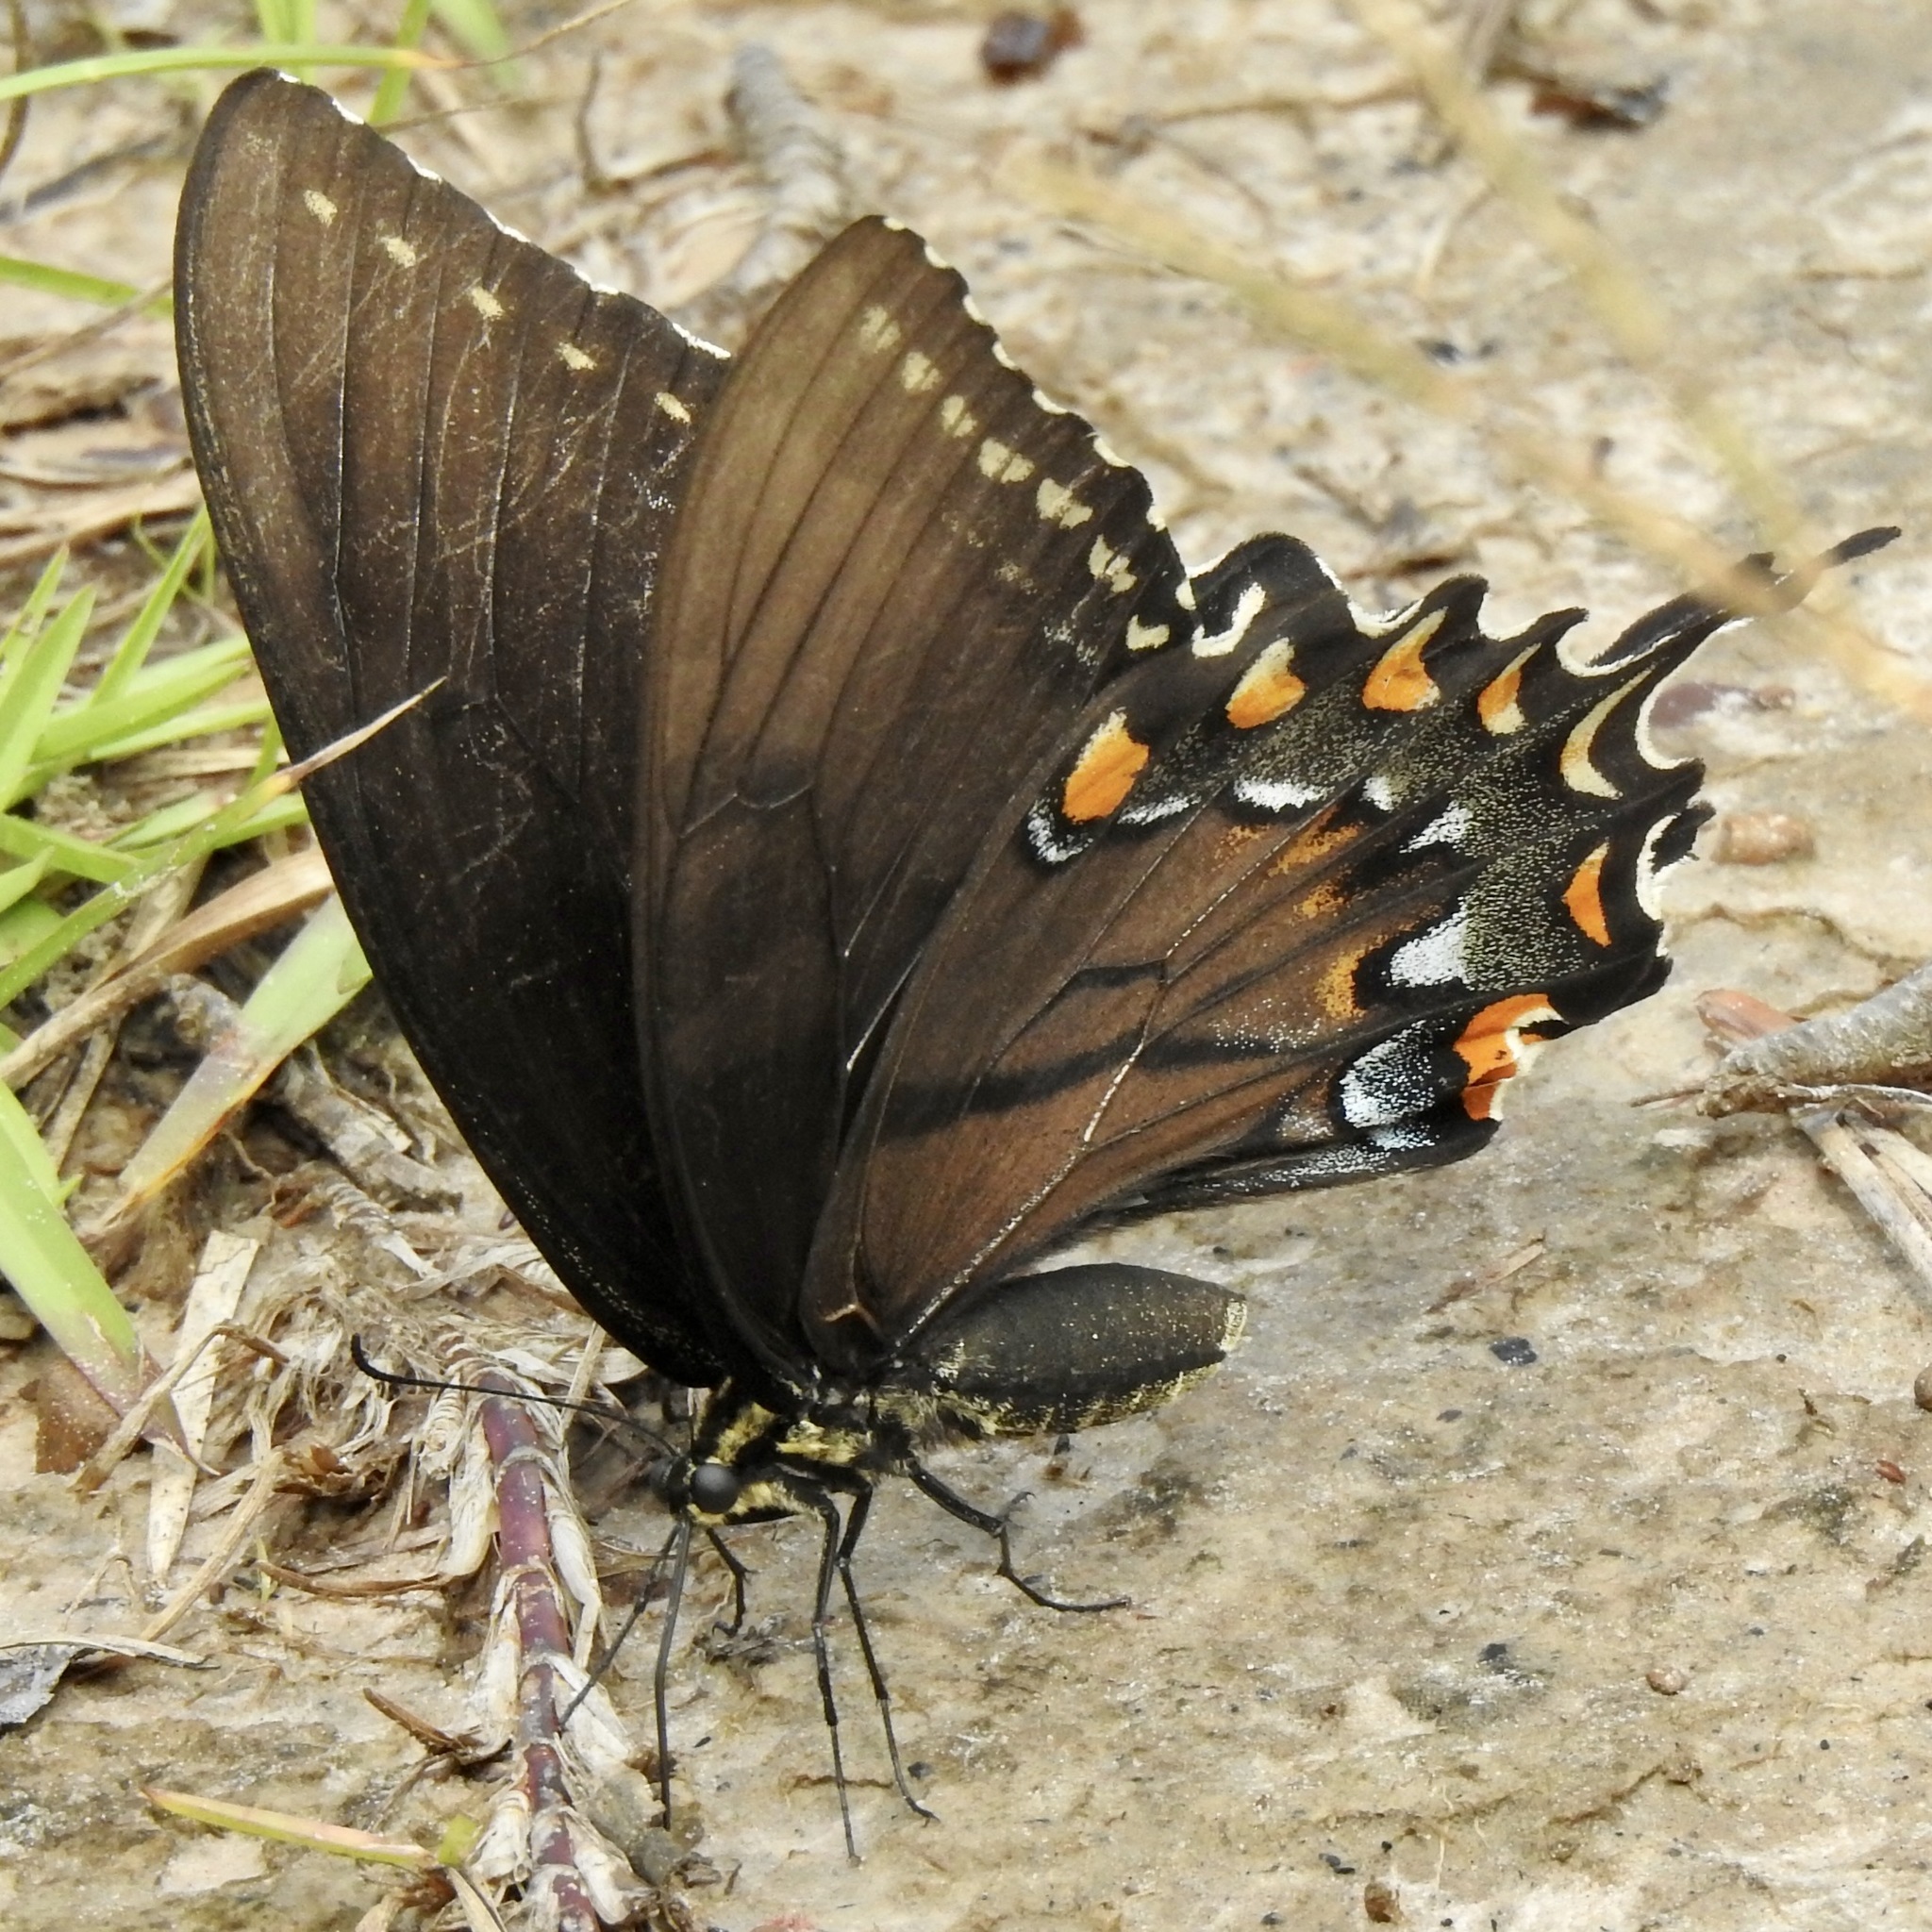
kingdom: Animalia
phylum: Arthropoda
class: Insecta
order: Lepidoptera
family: Papilionidae
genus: Papilio
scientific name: Papilio glaucus
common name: Tiger swallowtail
